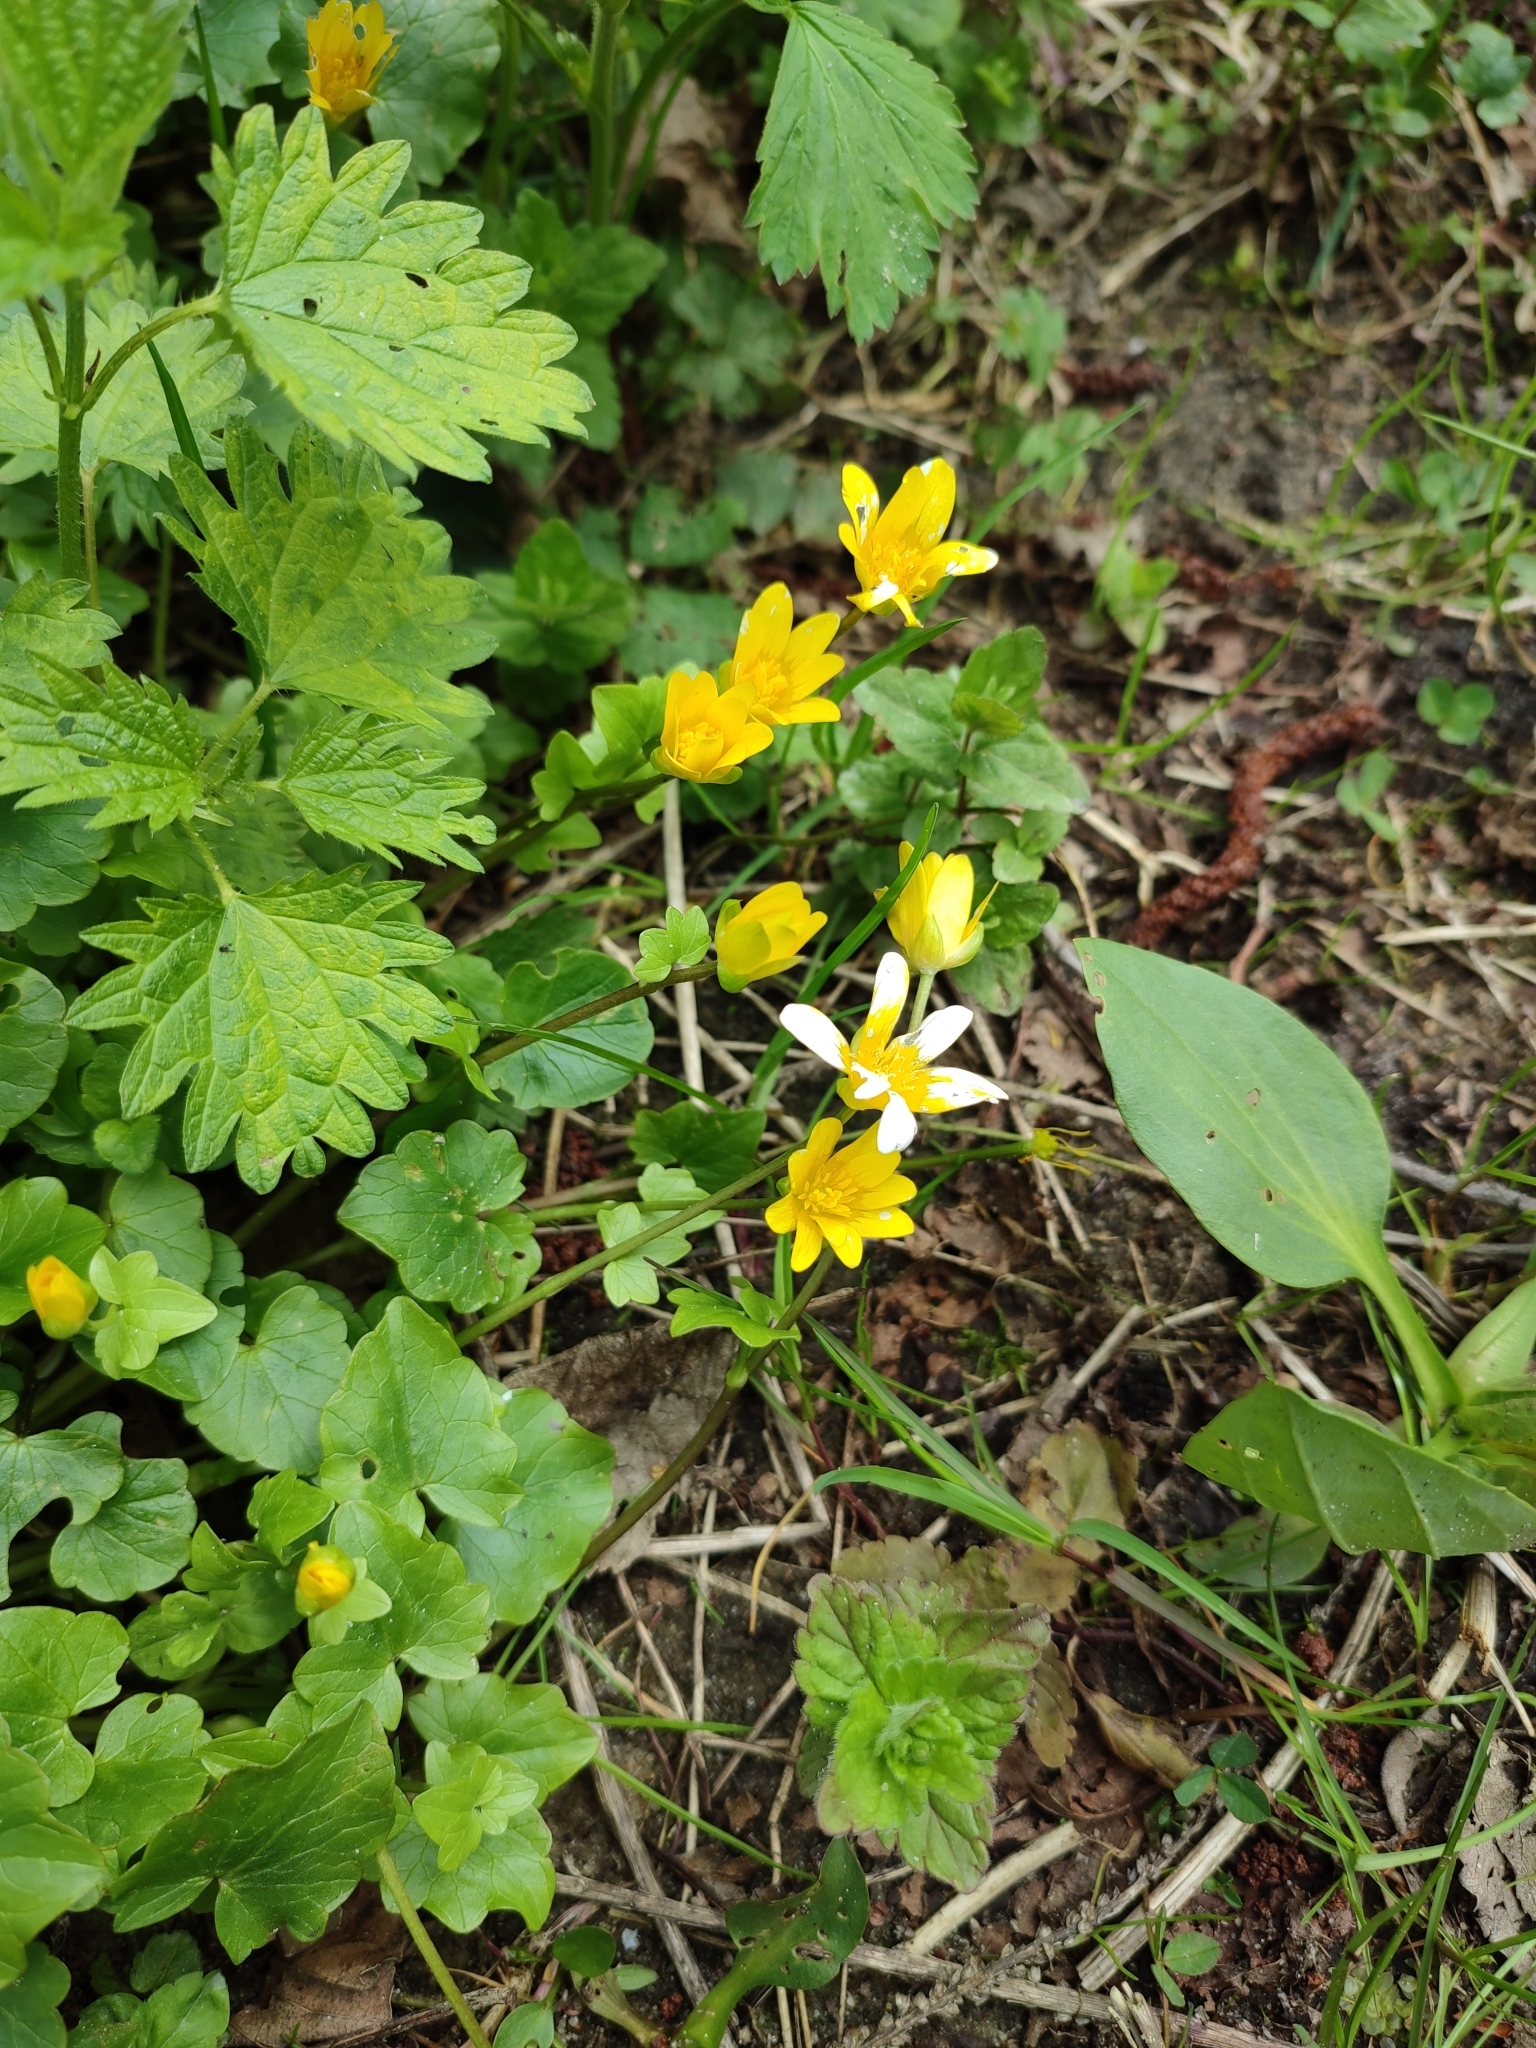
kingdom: Plantae
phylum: Tracheophyta
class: Magnoliopsida
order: Ranunculales
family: Ranunculaceae
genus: Ficaria
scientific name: Ficaria verna
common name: Lesser celandine
